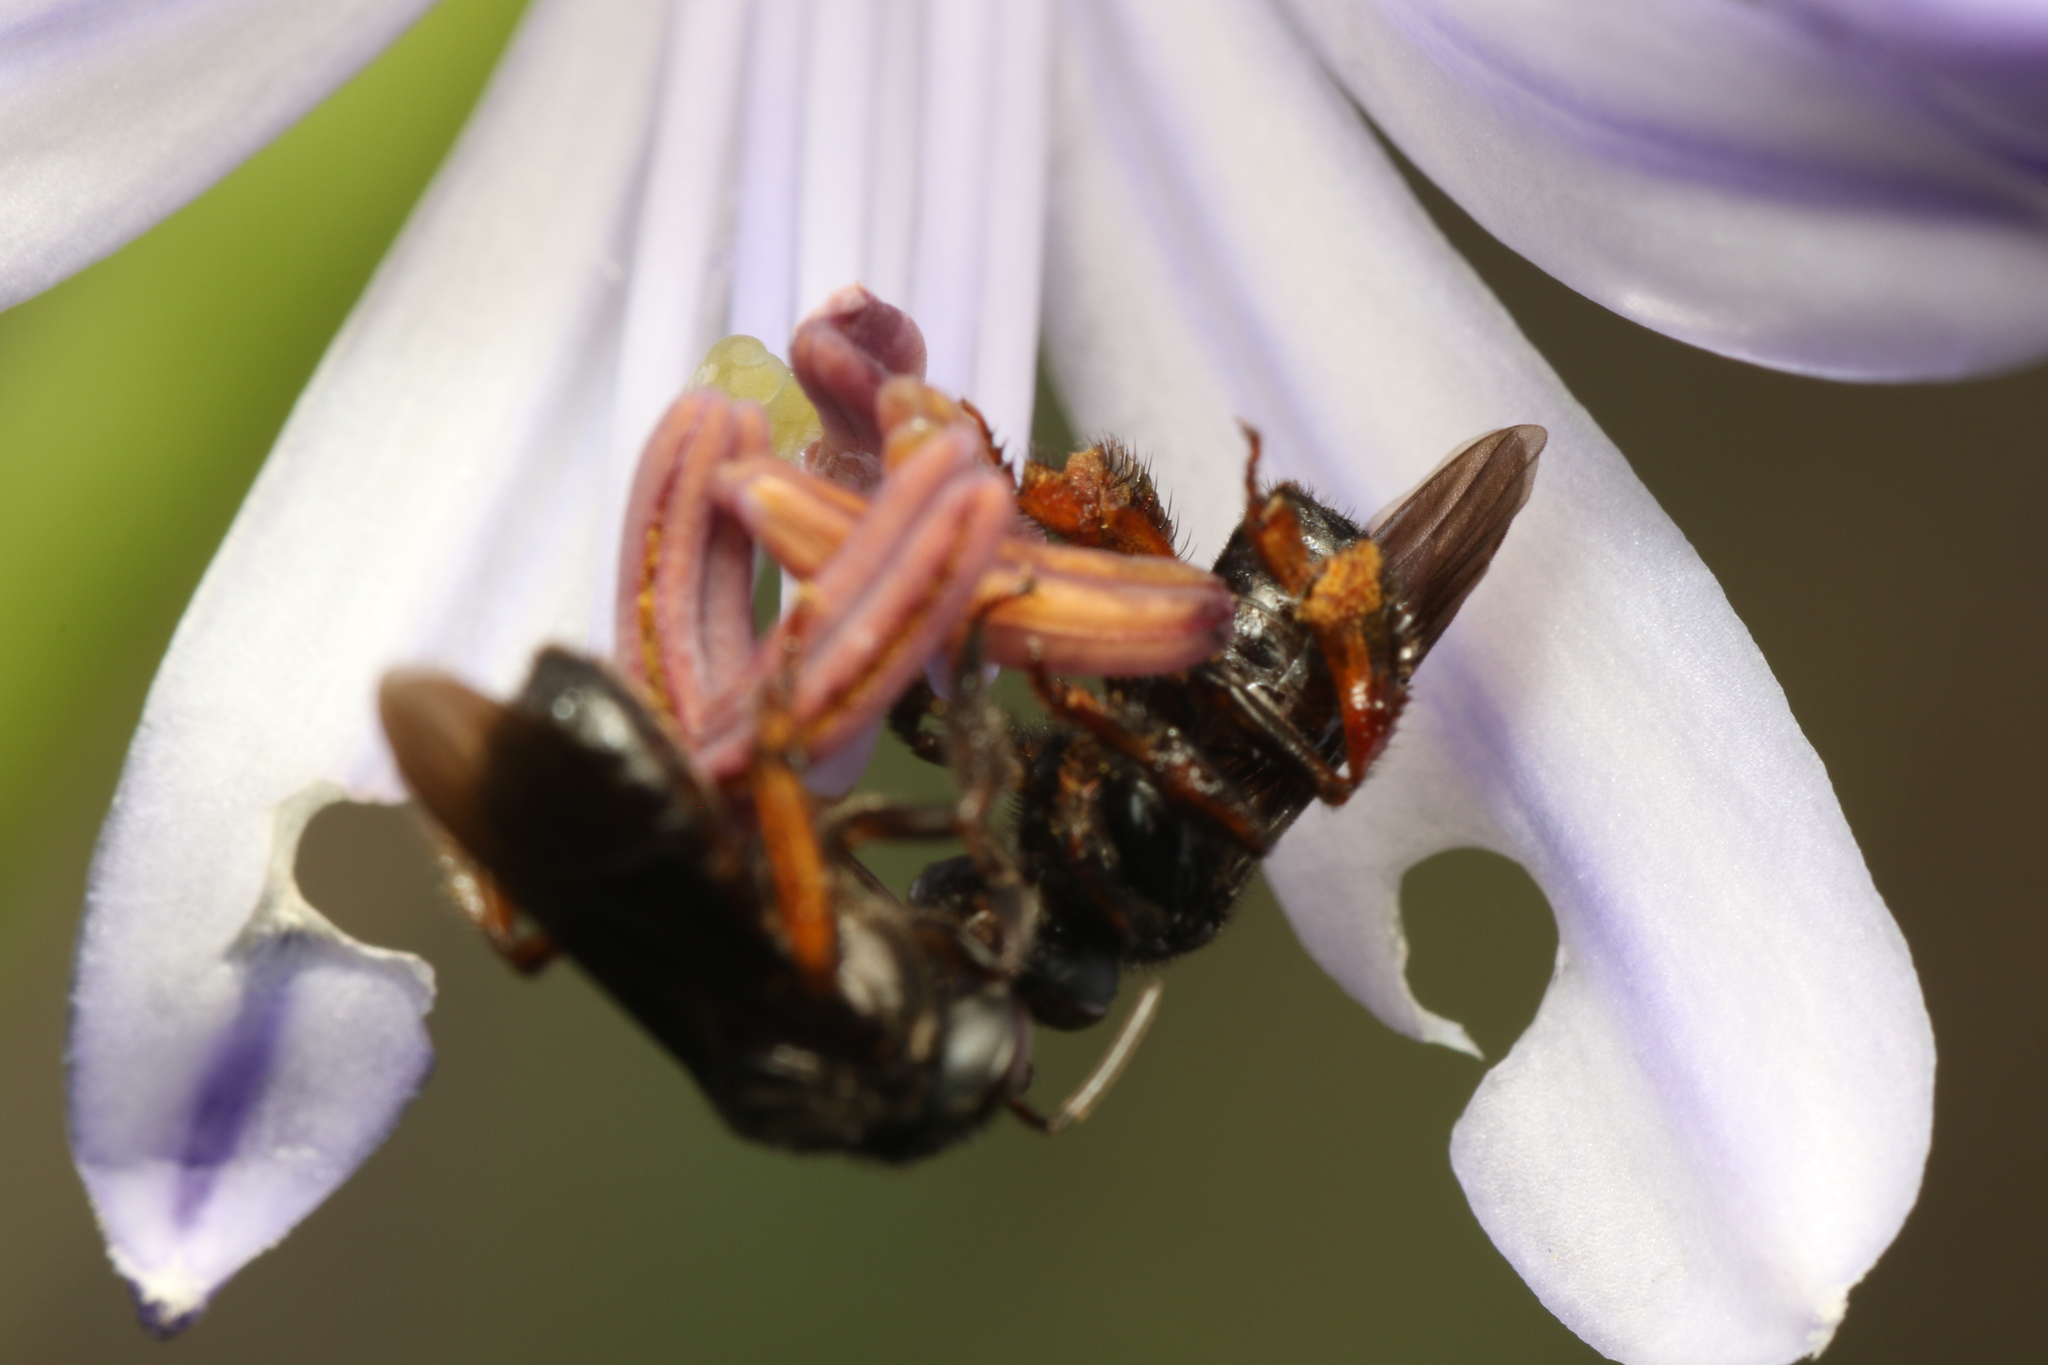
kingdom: Animalia
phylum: Arthropoda
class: Insecta
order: Hymenoptera
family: Apidae
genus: Trigona
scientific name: Trigona spinipes
